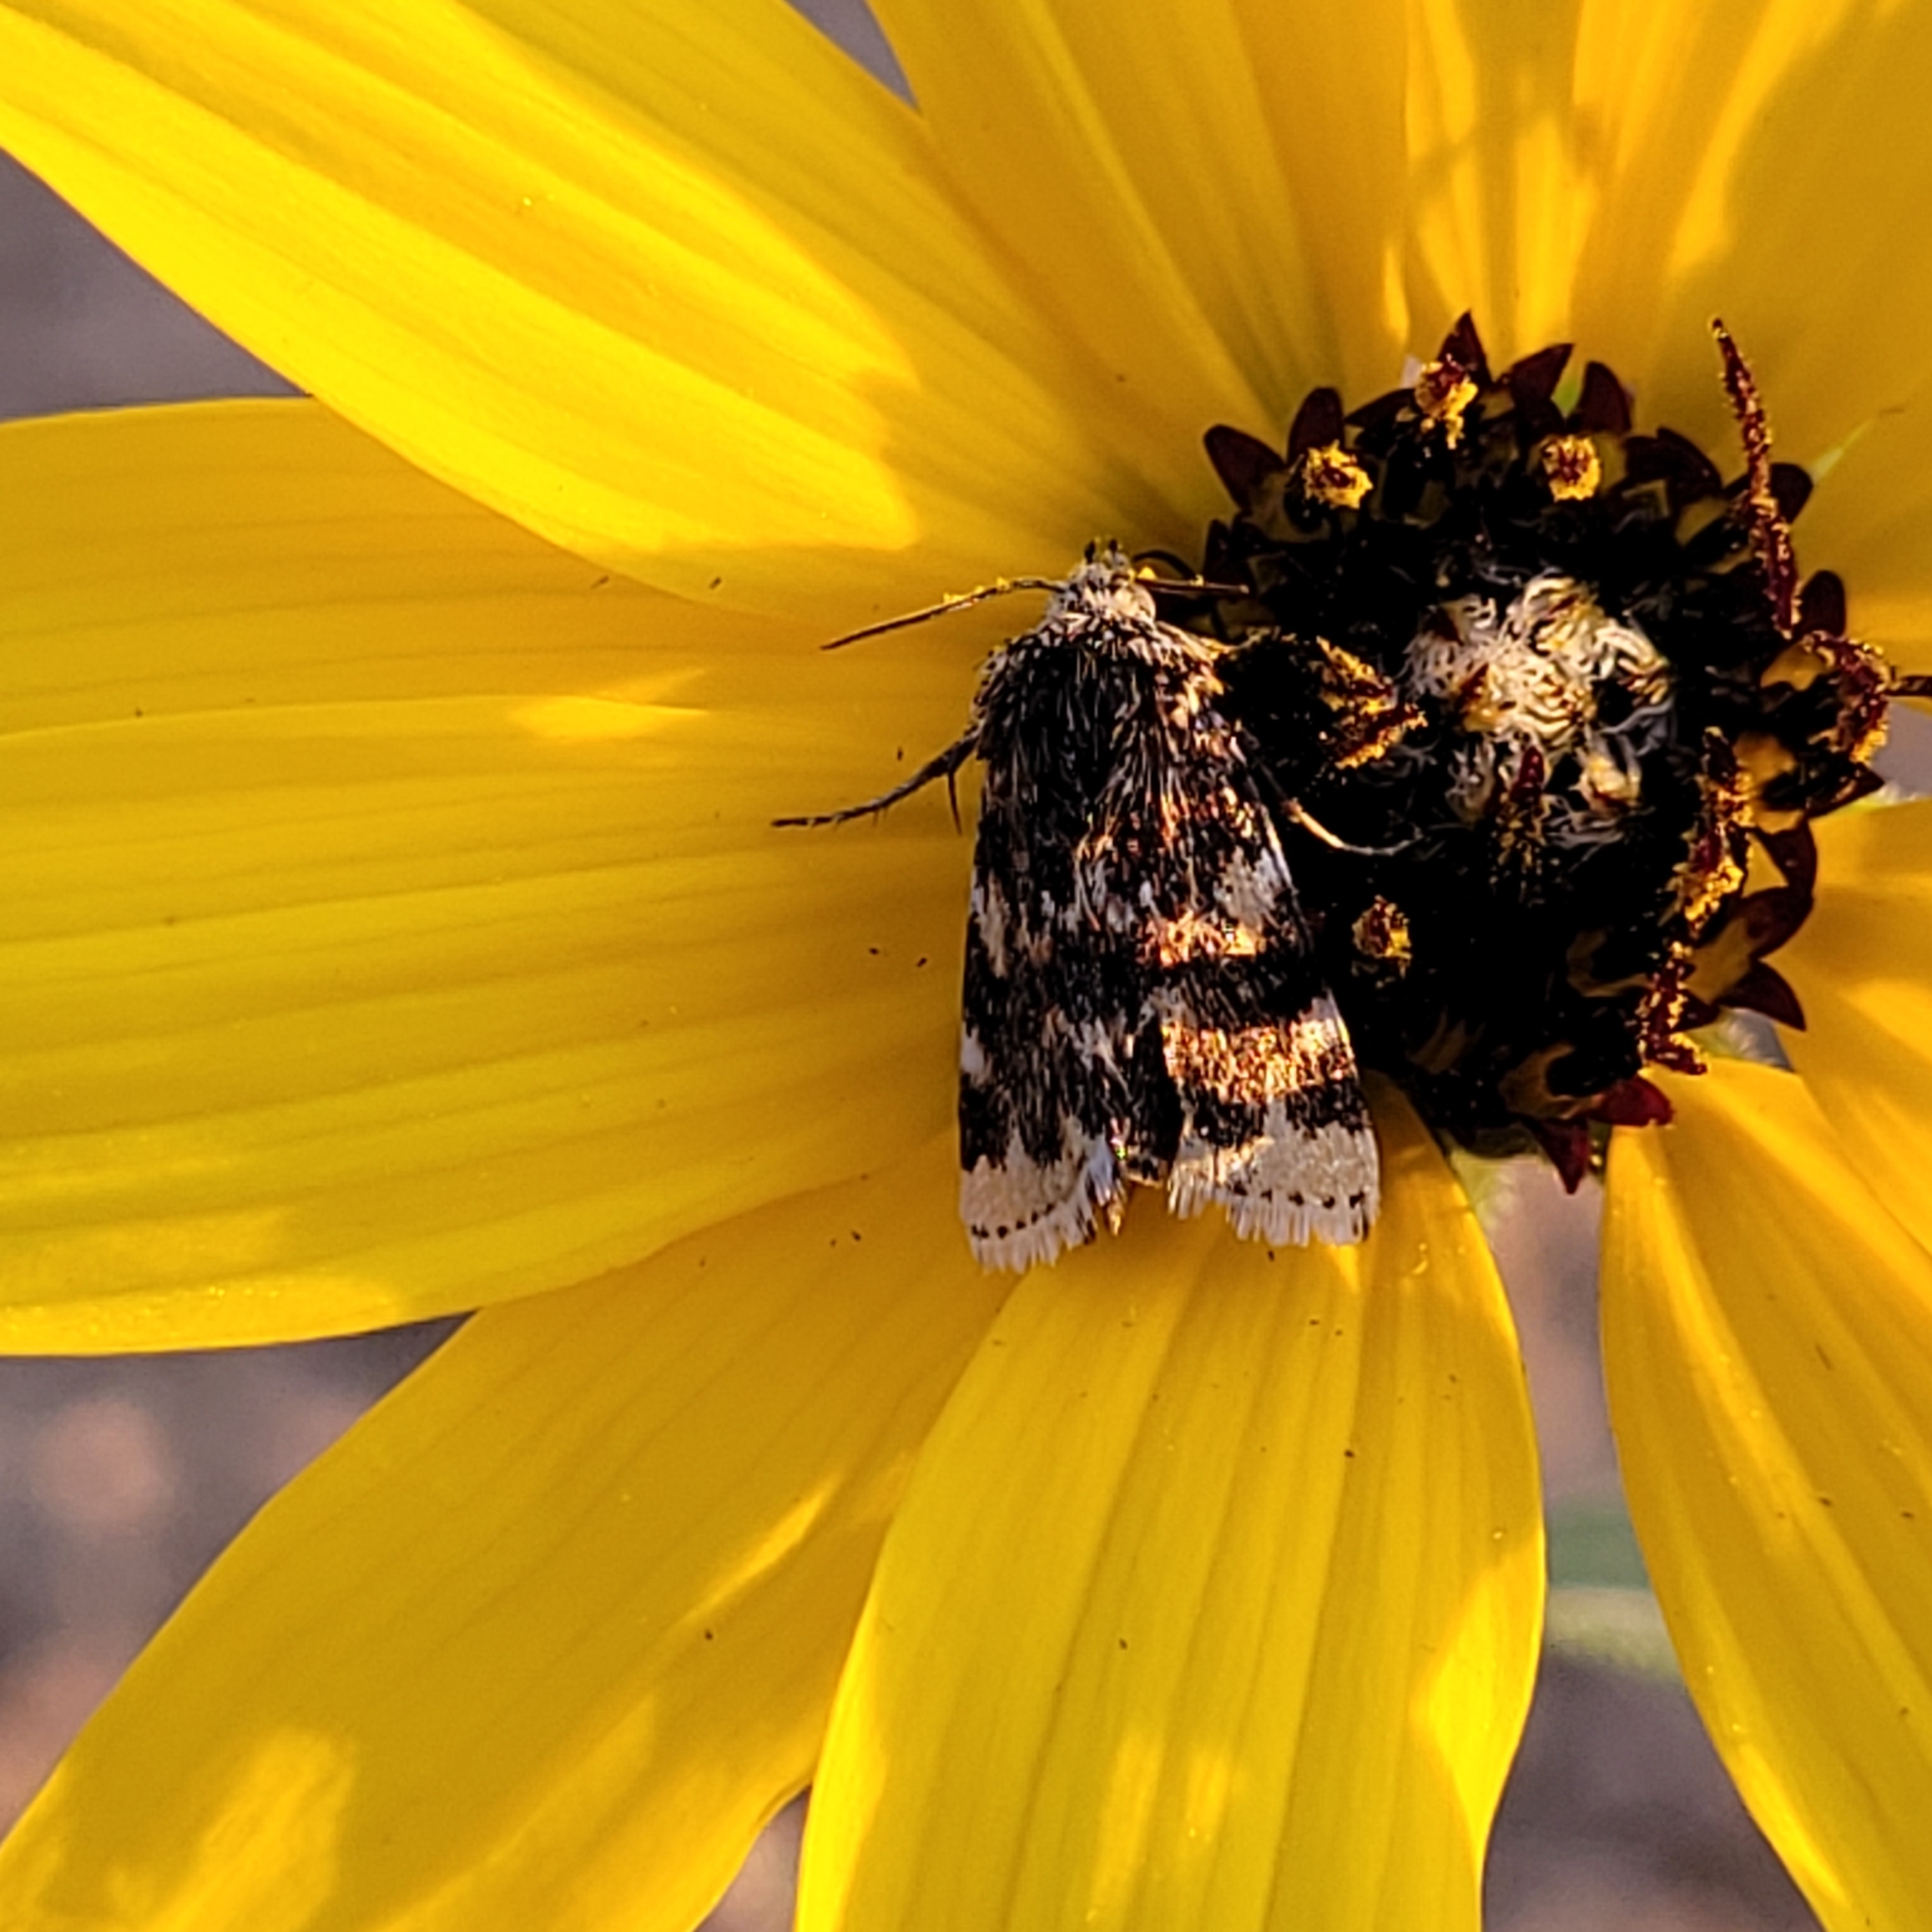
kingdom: Animalia
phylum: Arthropoda
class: Insecta
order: Lepidoptera
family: Noctuidae
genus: Schinia
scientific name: Schinia avemensis
